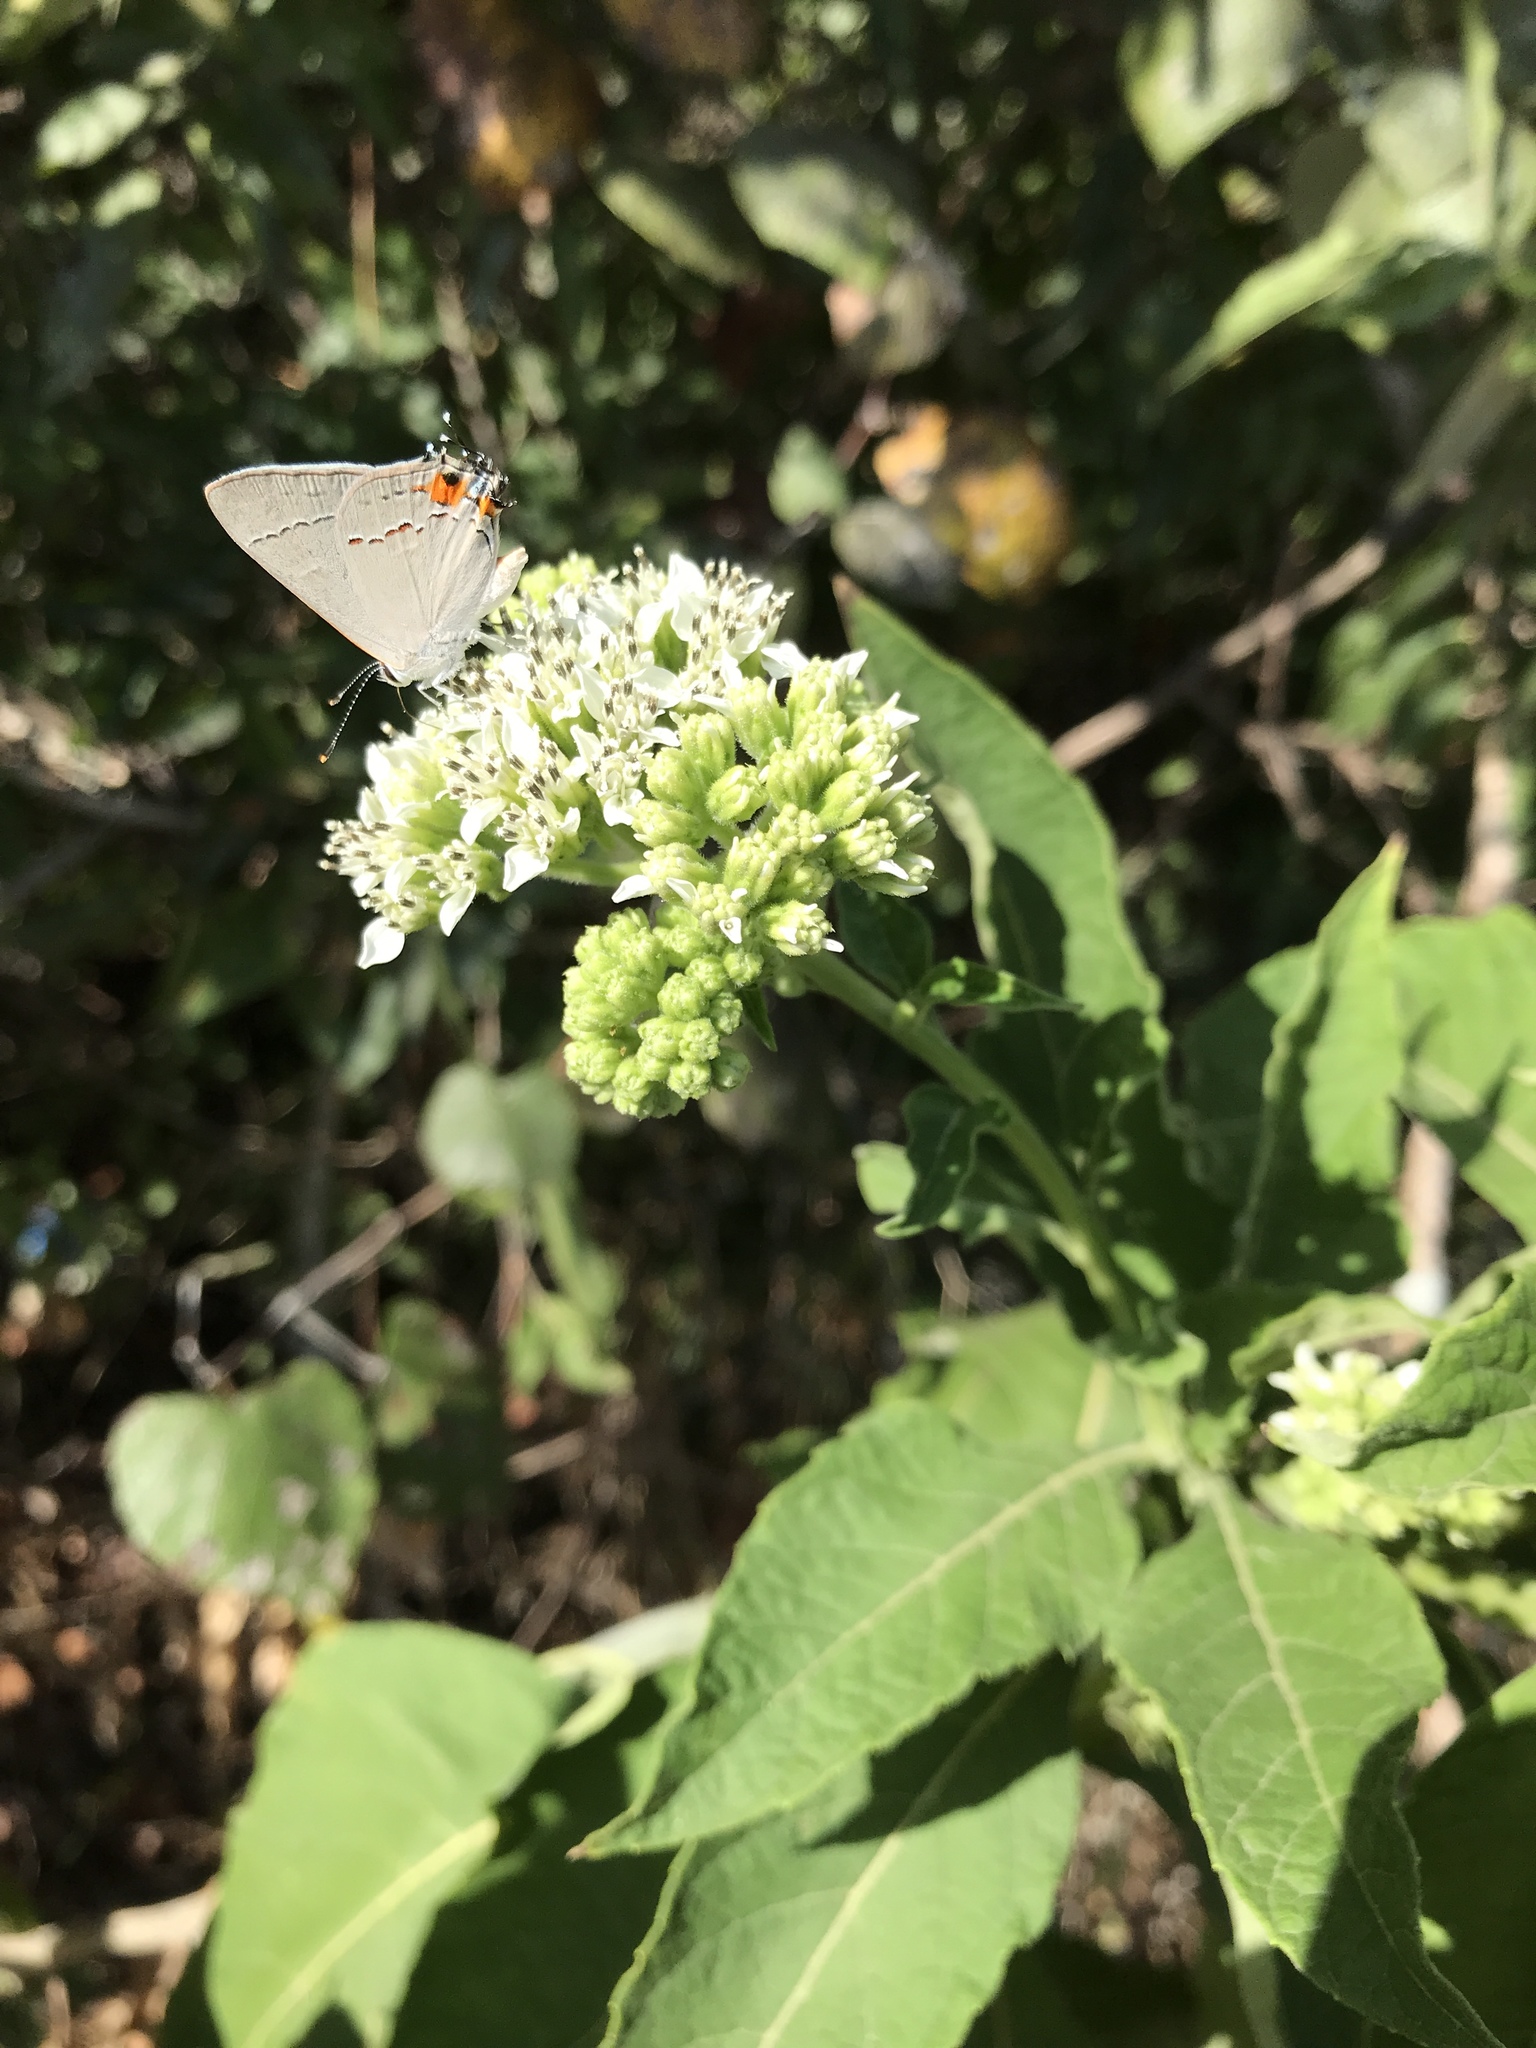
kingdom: Animalia
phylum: Arthropoda
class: Insecta
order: Lepidoptera
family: Lycaenidae
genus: Strymon
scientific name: Strymon melinus
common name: Gray hairstreak
